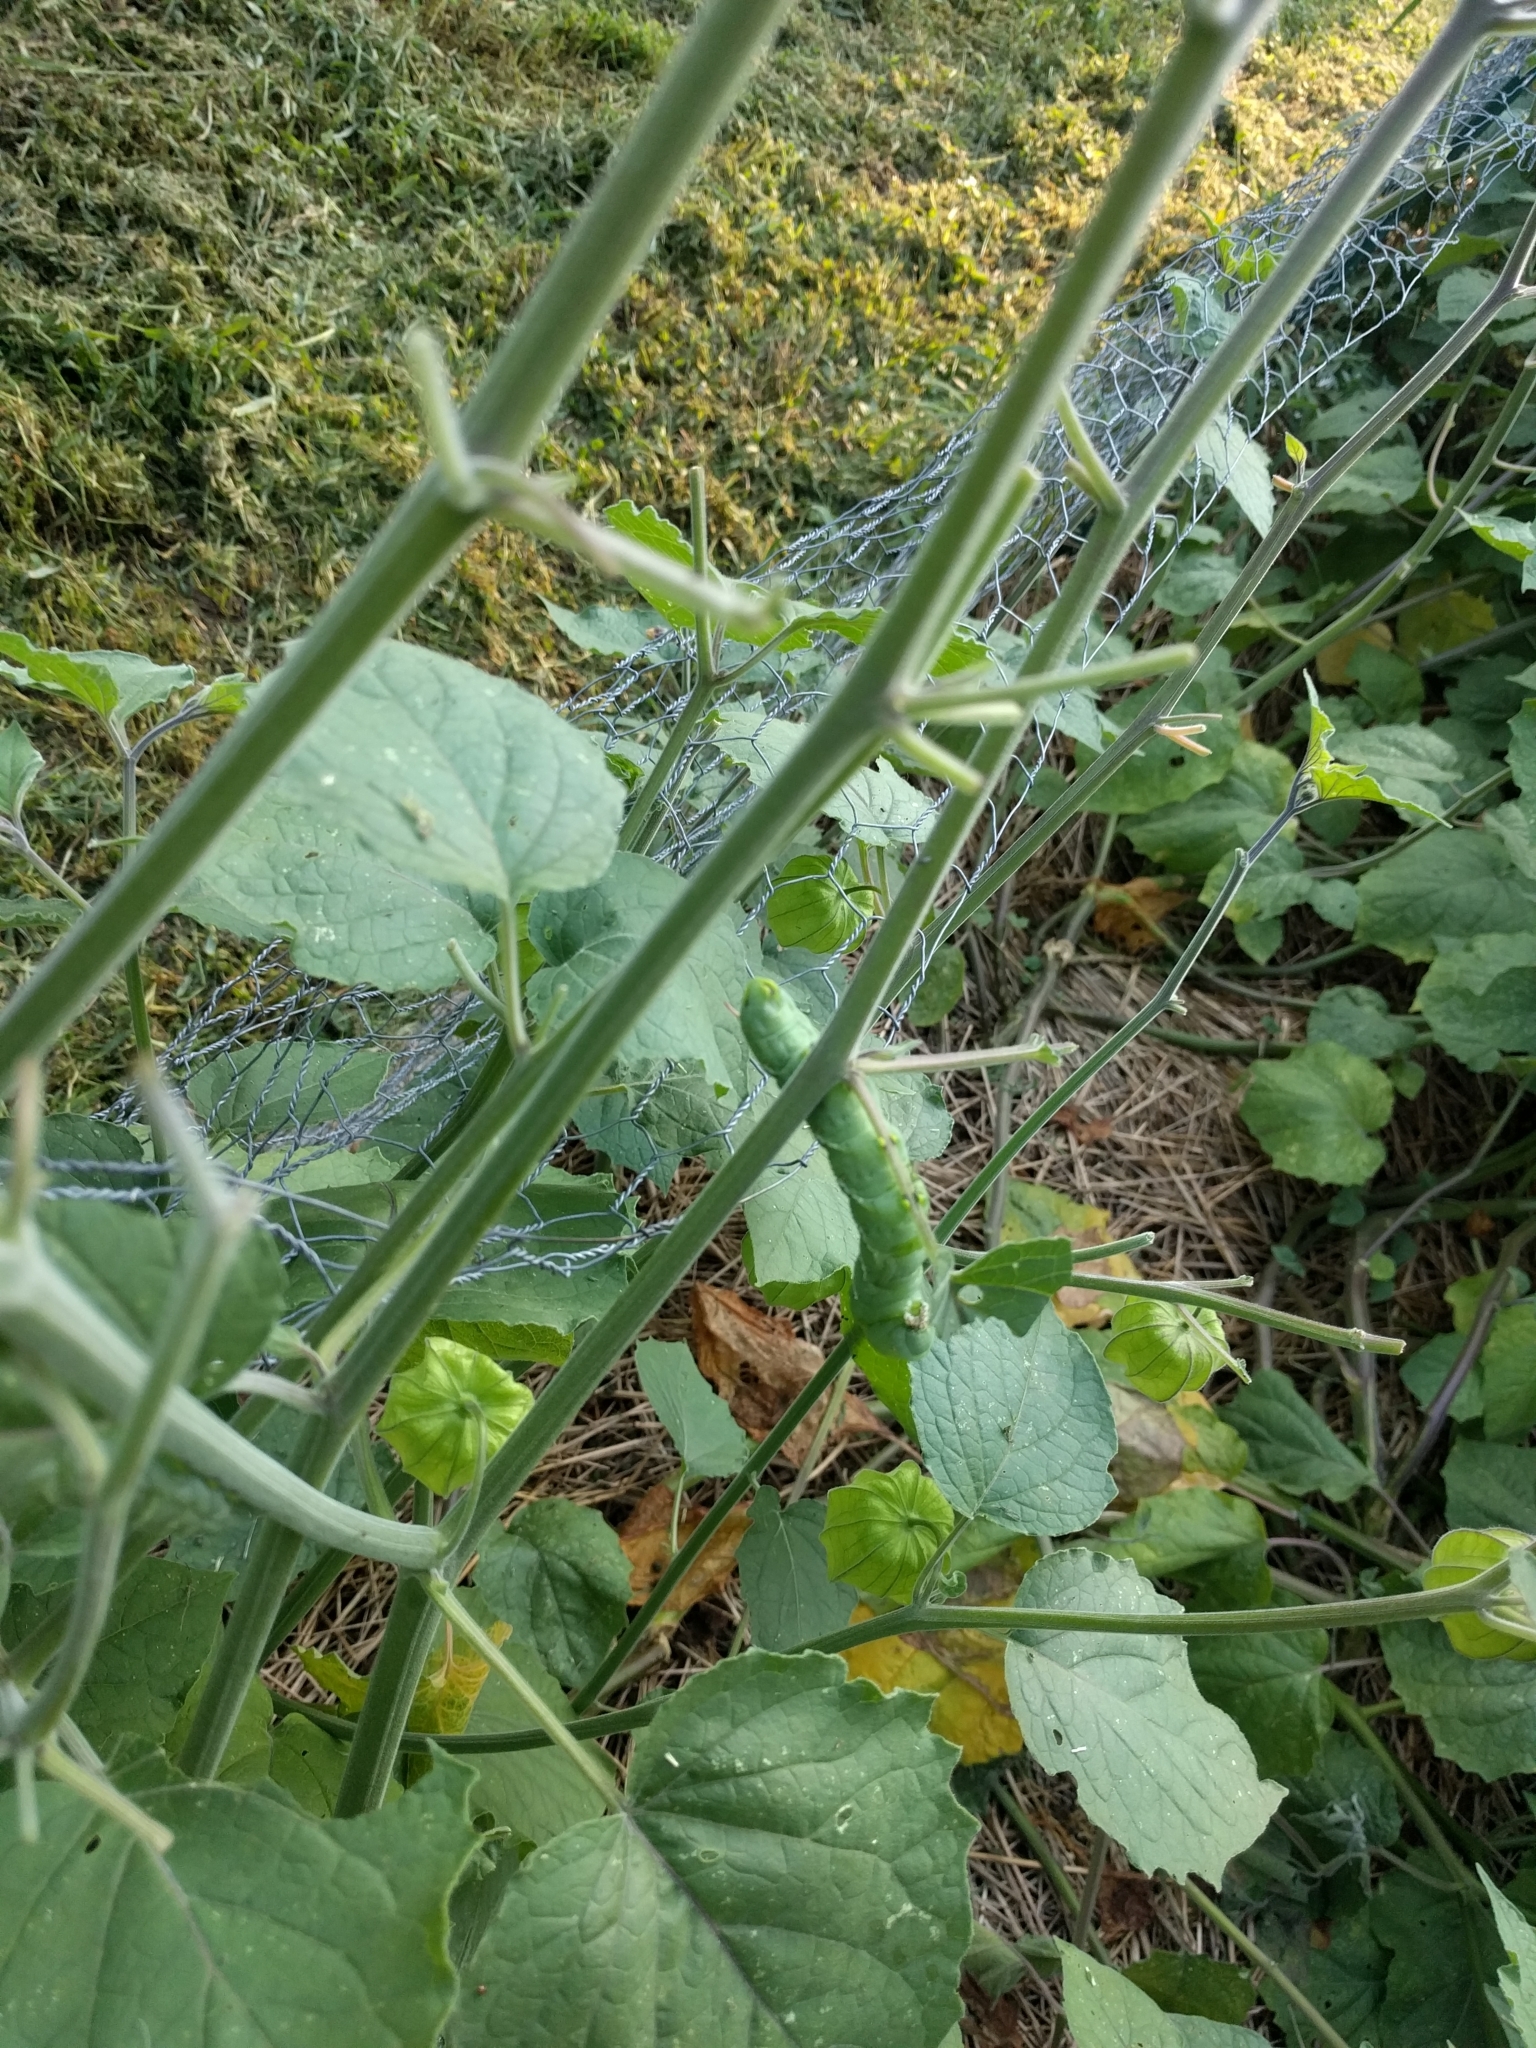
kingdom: Animalia
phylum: Arthropoda
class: Insecta
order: Lepidoptera
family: Sphingidae
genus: Manduca
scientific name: Manduca sexta
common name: Carolina sphinx
